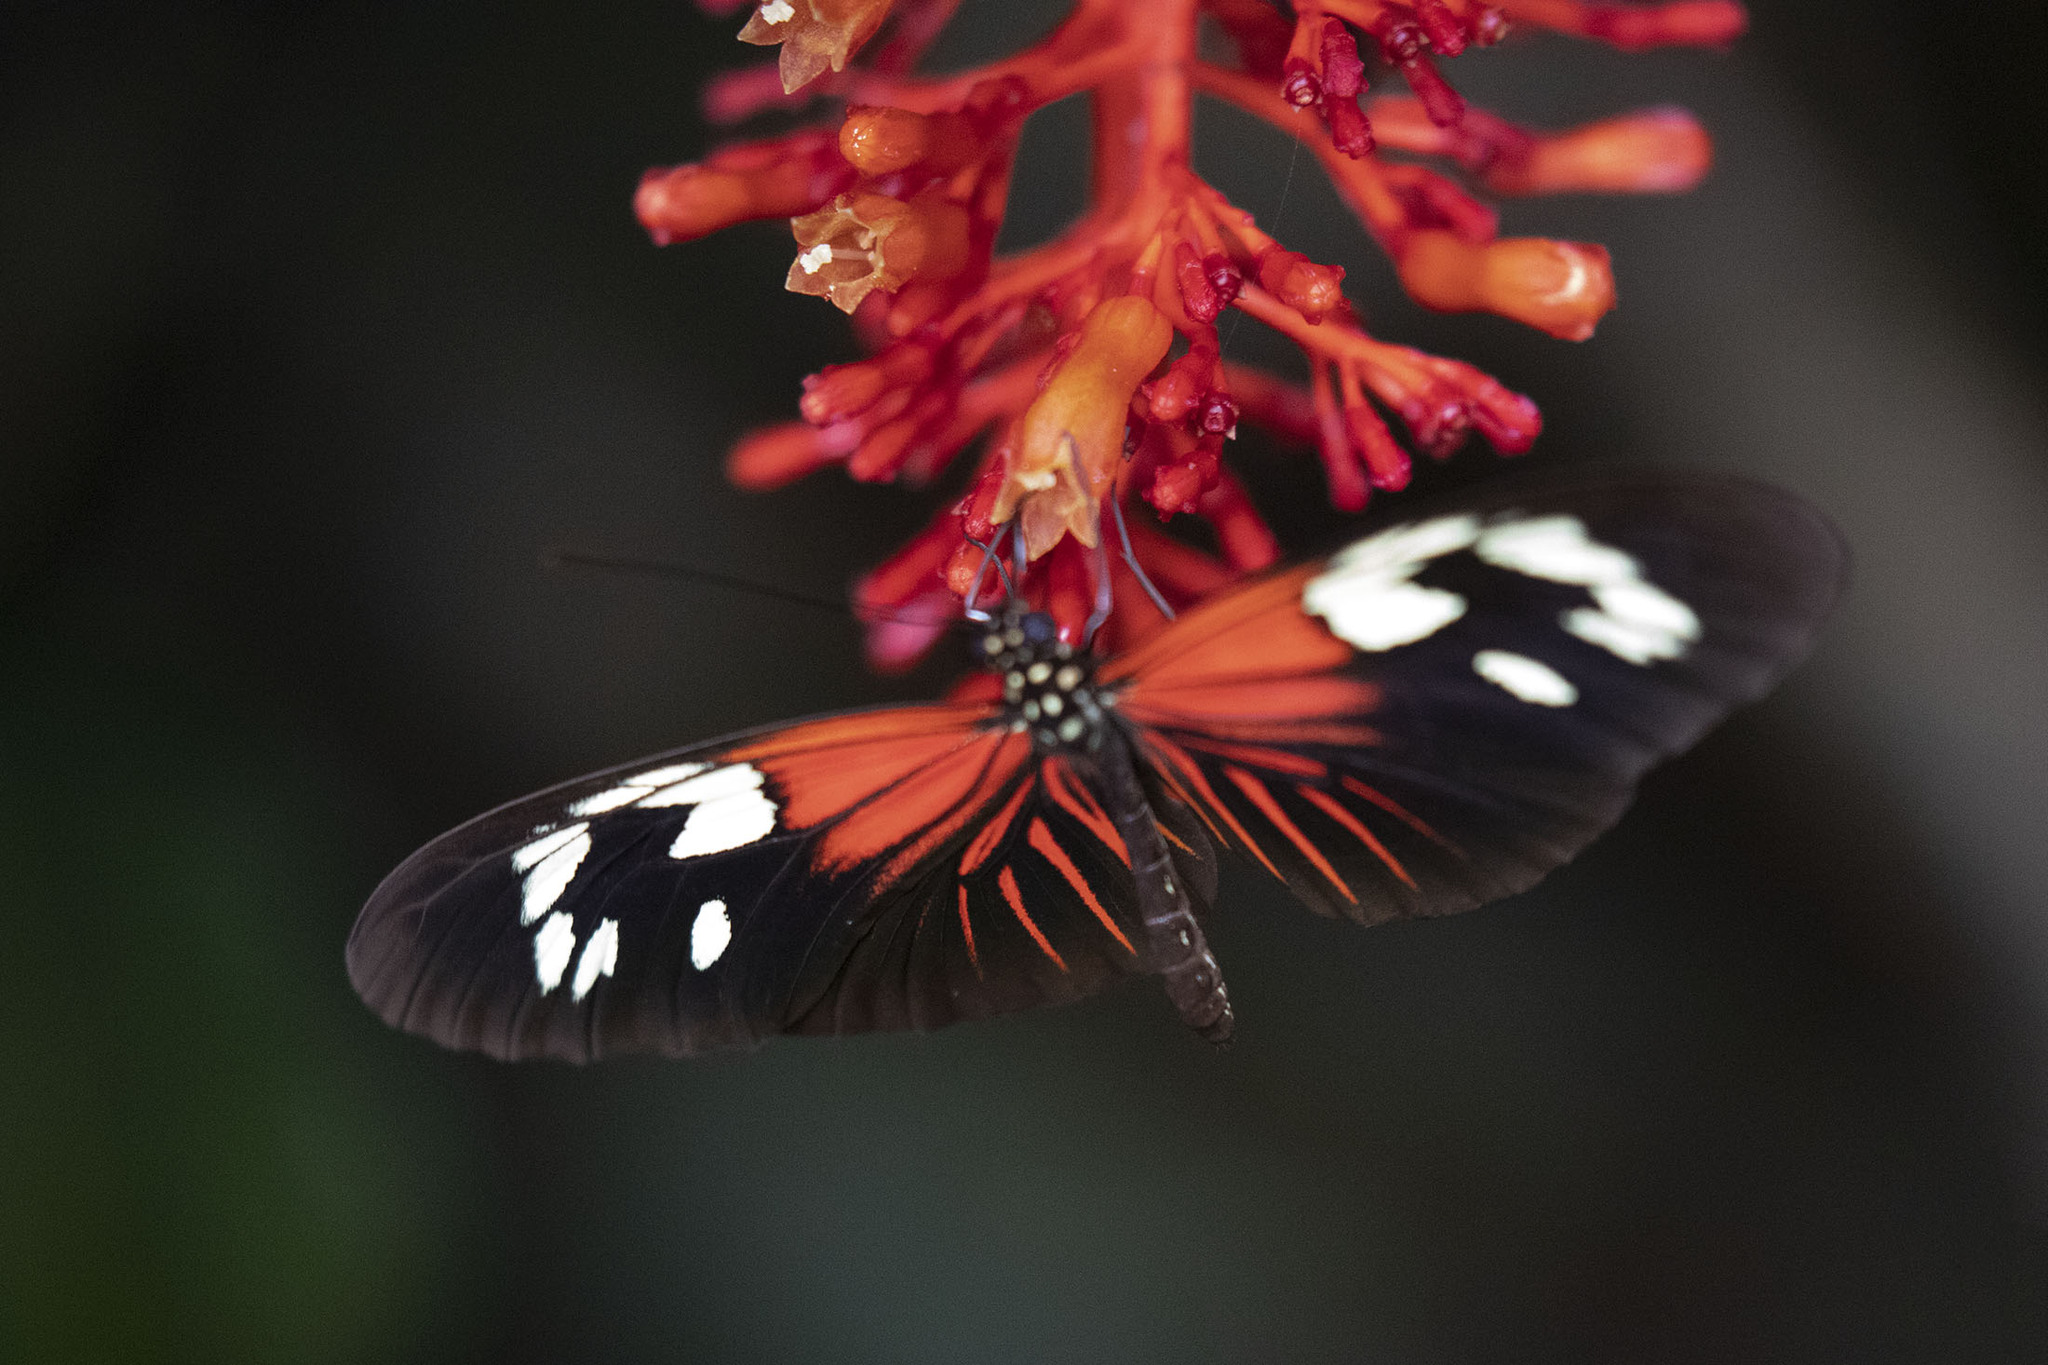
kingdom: Animalia
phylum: Arthropoda
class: Insecta
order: Lepidoptera
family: Nymphalidae
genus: Heliconius
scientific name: Heliconius erato
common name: Common patch longwing
